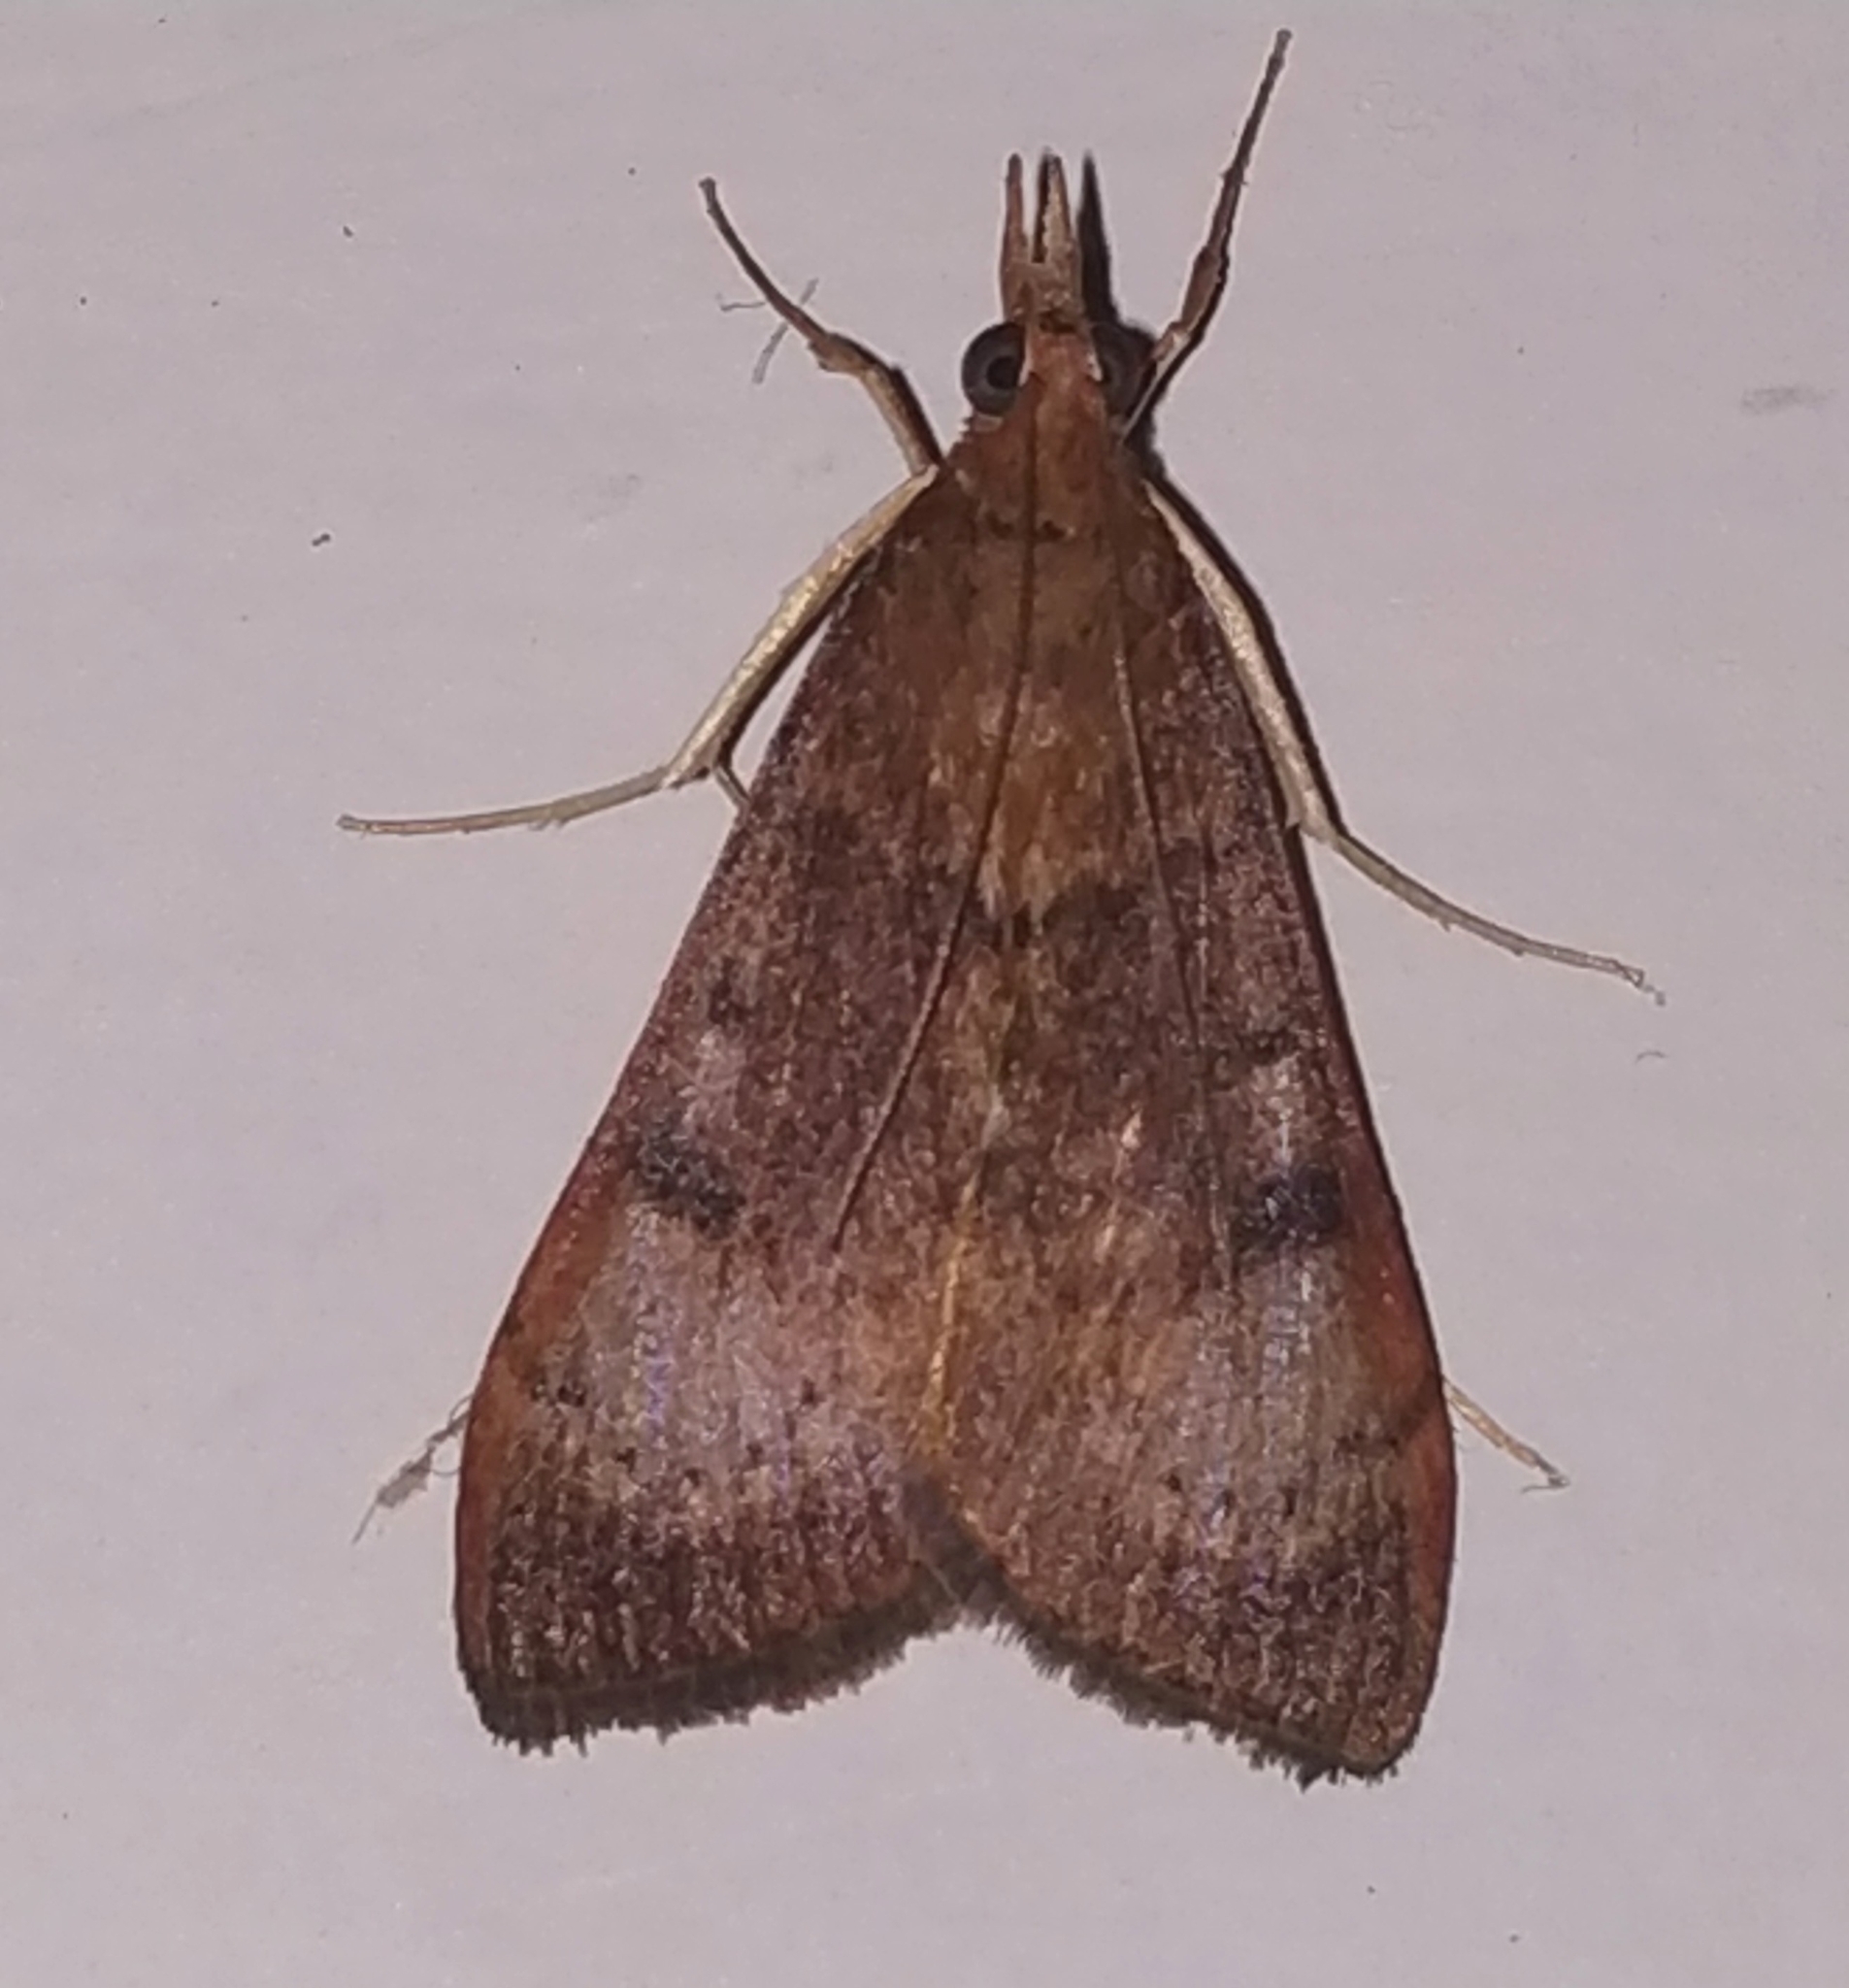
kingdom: Animalia
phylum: Arthropoda
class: Insecta
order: Lepidoptera
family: Crambidae
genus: Uresiphita
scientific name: Uresiphita gilvata
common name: Yellow-underwing pearl
